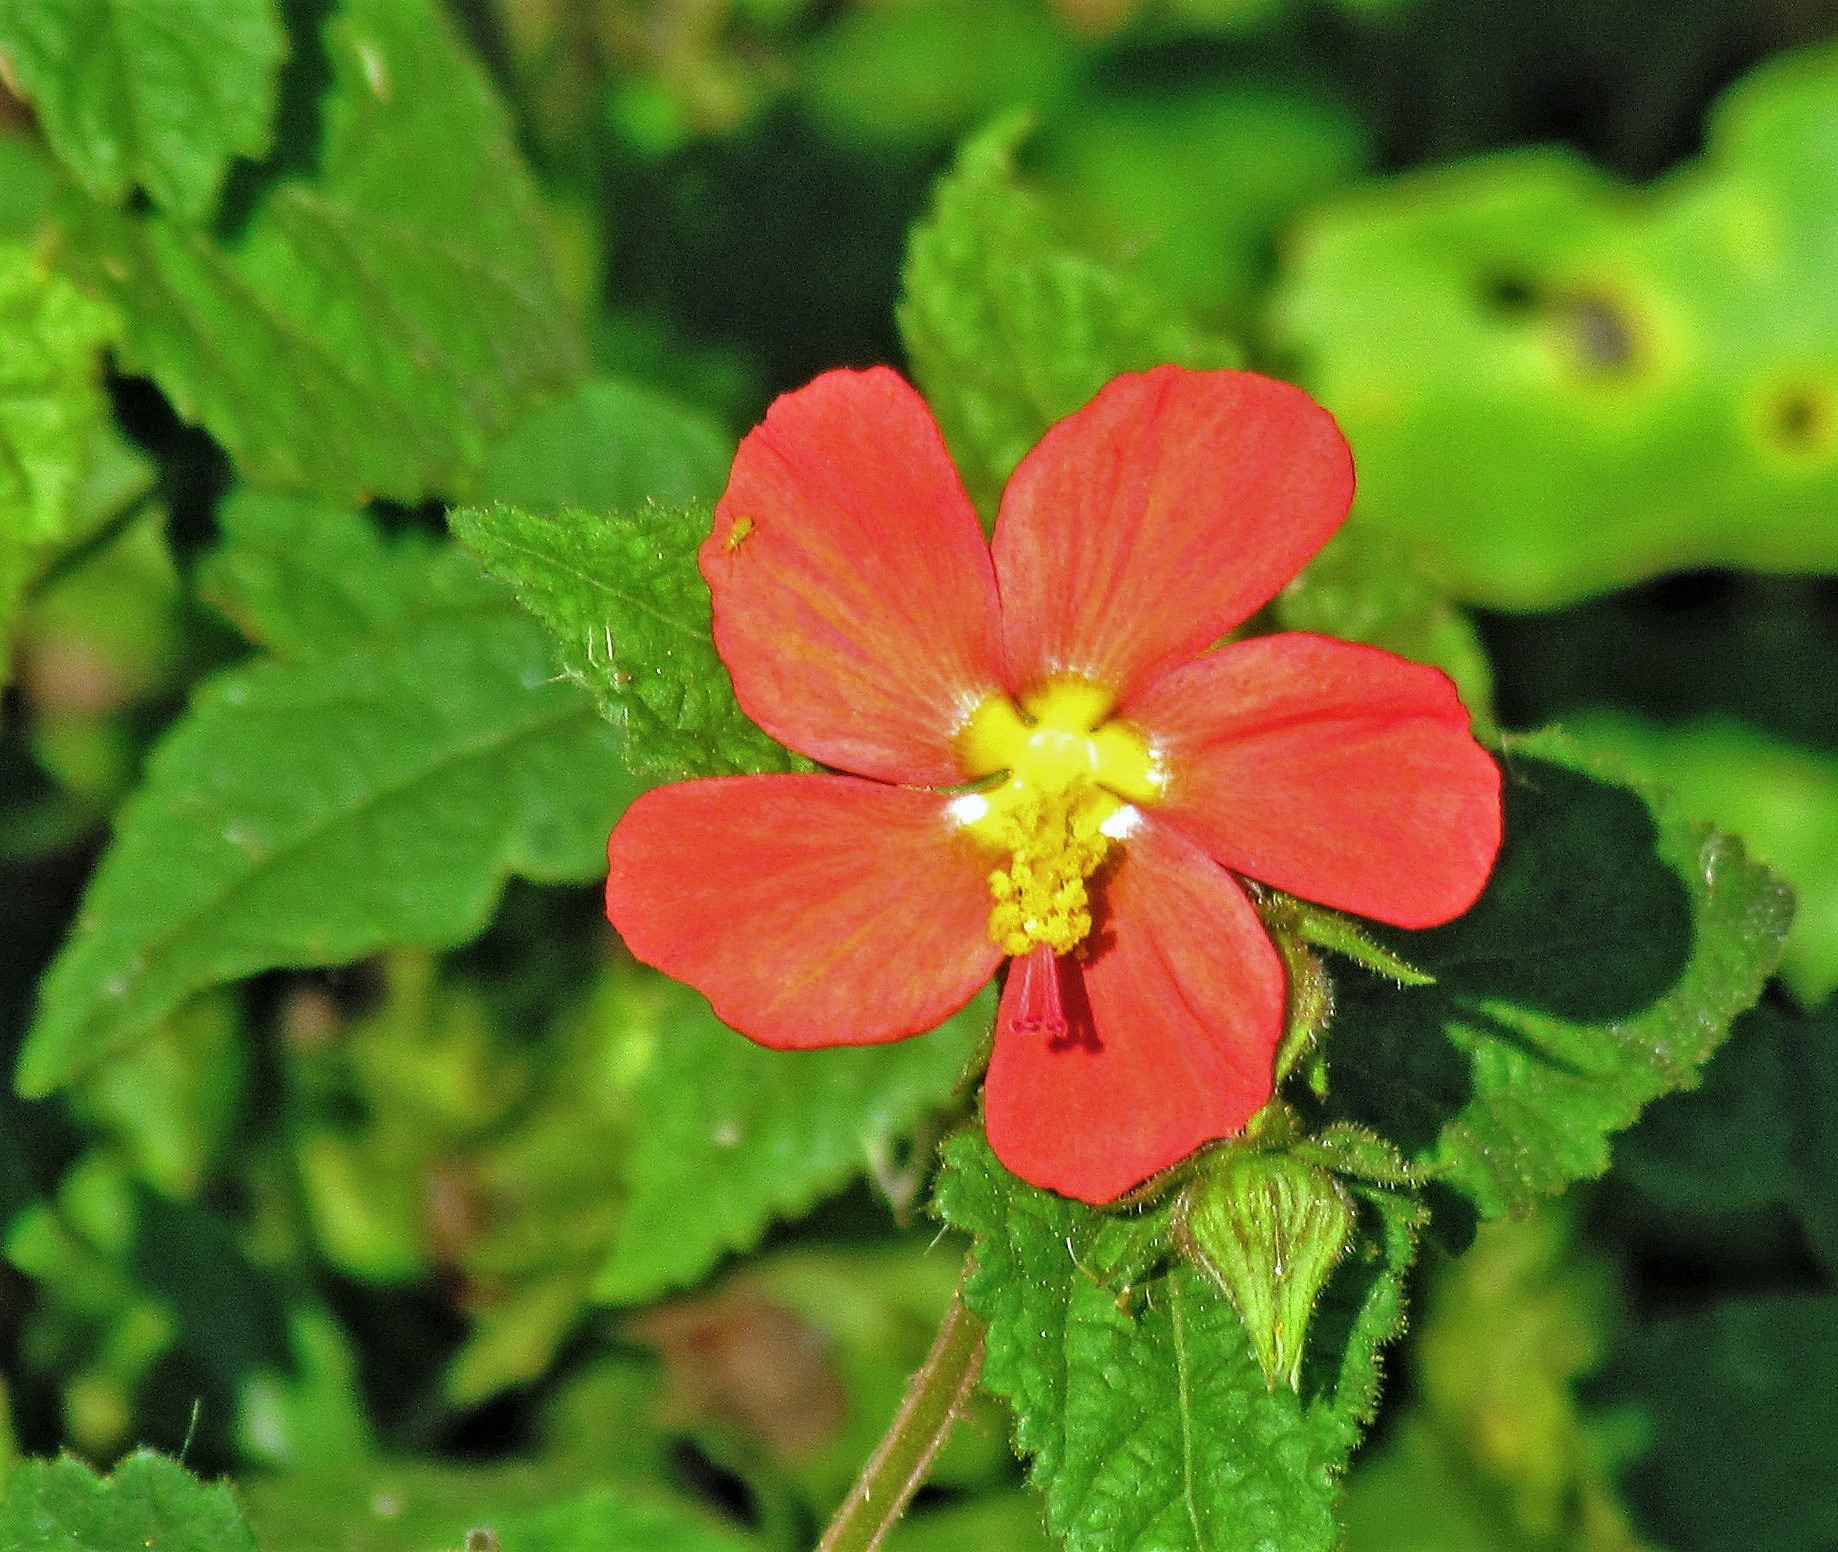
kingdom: Plantae
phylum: Tracheophyta
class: Magnoliopsida
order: Malvales
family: Malvaceae
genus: Pavonia
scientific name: Pavonia missionum
